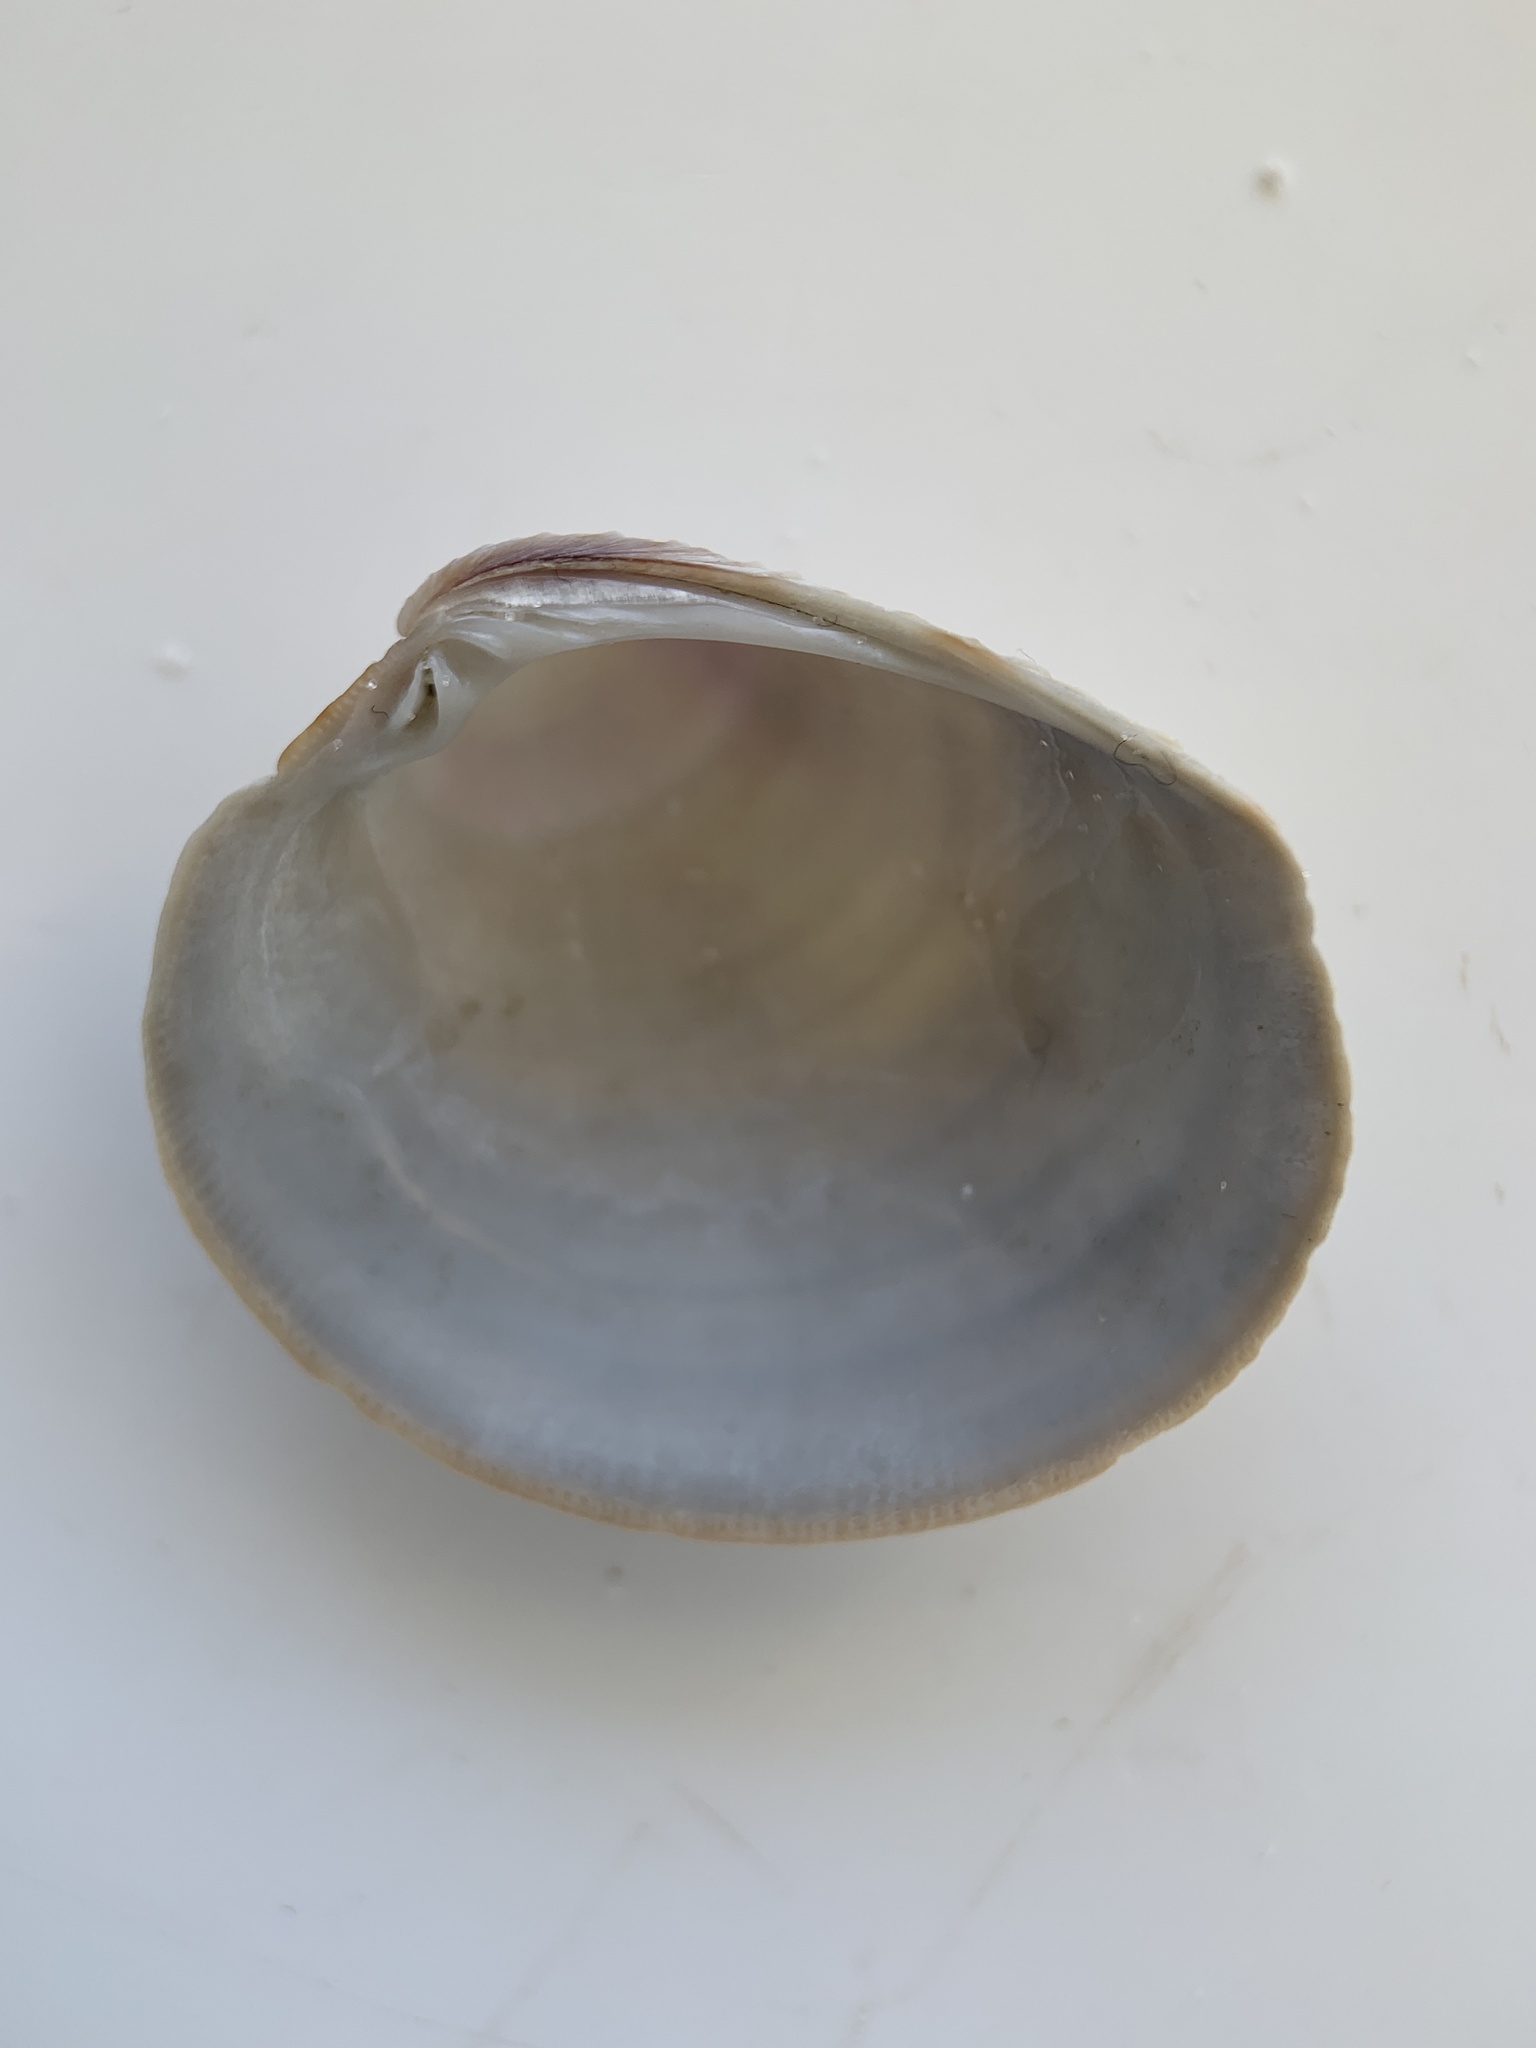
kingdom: Animalia
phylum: Mollusca
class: Bivalvia
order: Venerida
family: Veneridae
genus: Mercenaria
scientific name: Mercenaria campechiensis
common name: Südliche quahog-muschel
